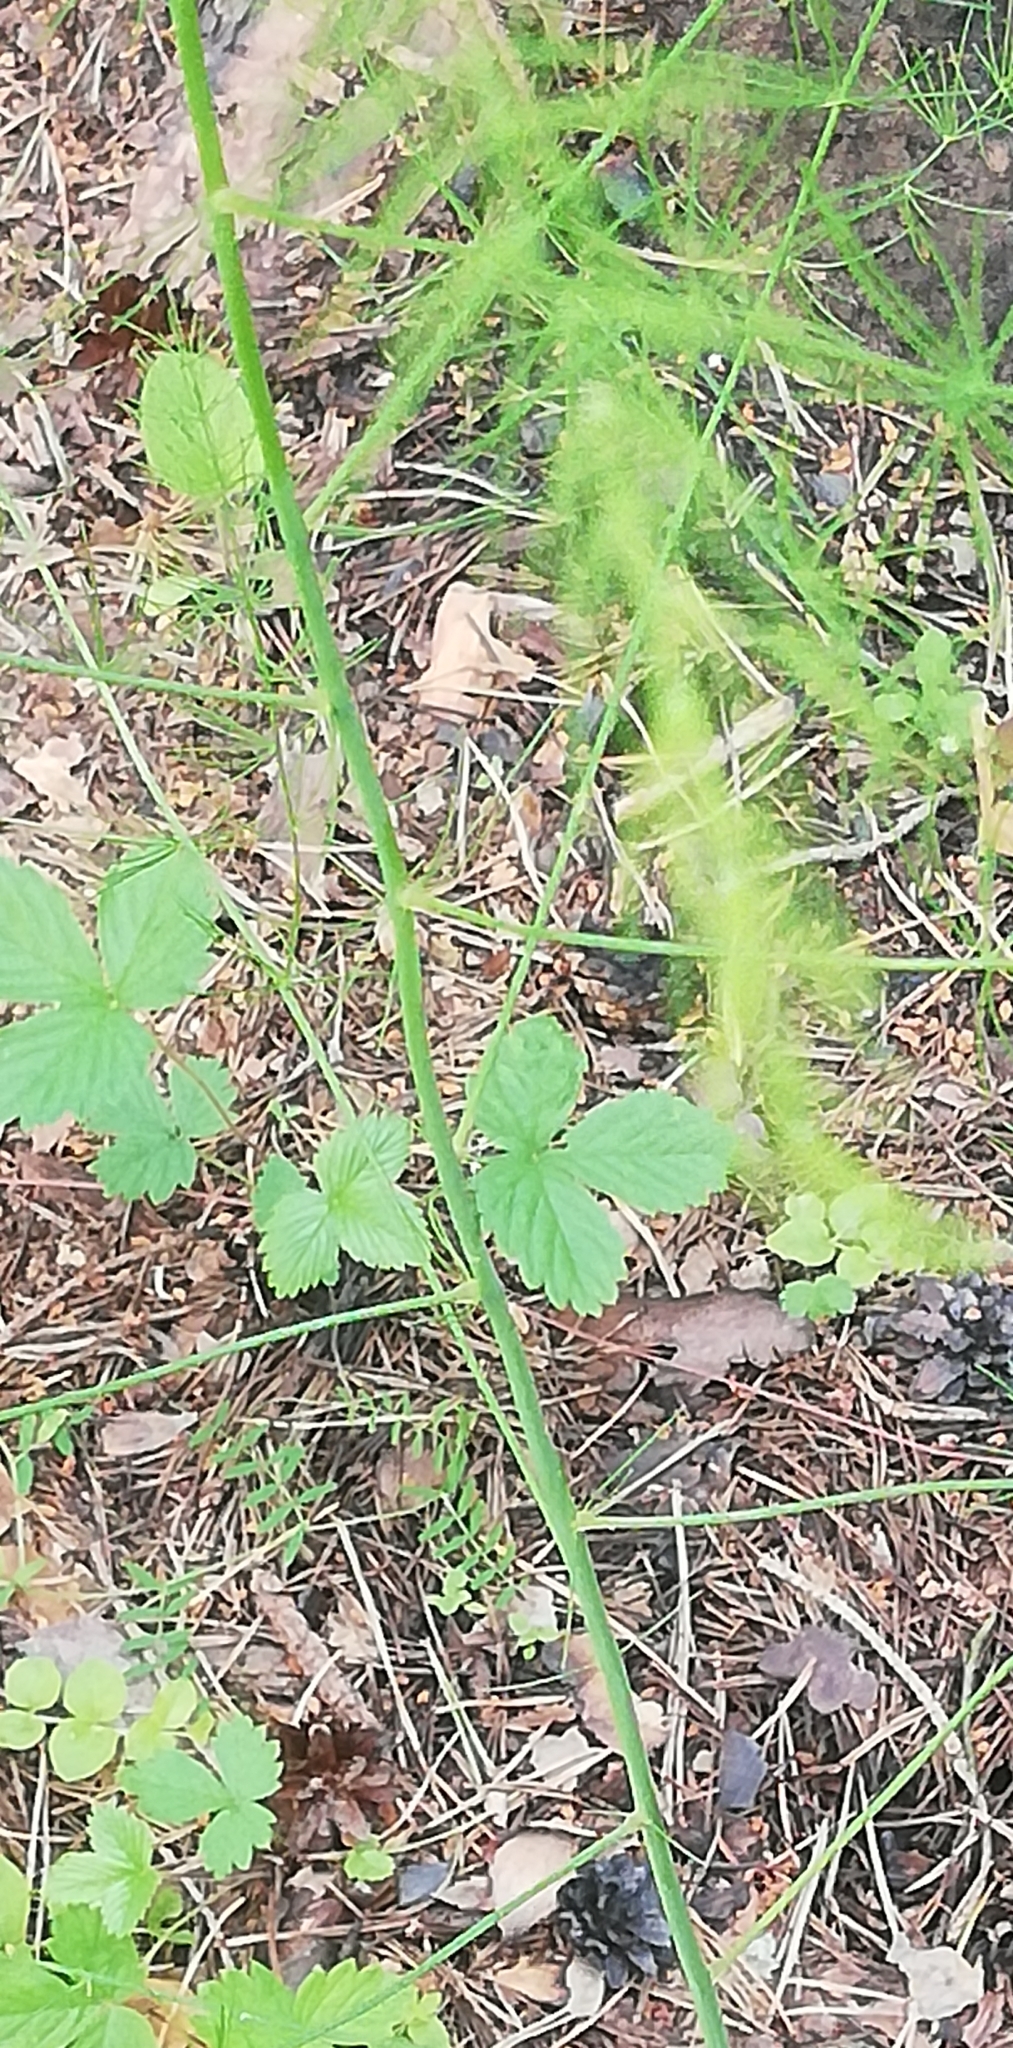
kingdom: Plantae
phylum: Tracheophyta
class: Liliopsida
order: Asparagales
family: Asparagaceae
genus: Asparagus
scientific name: Asparagus officinalis
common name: Garden asparagus
